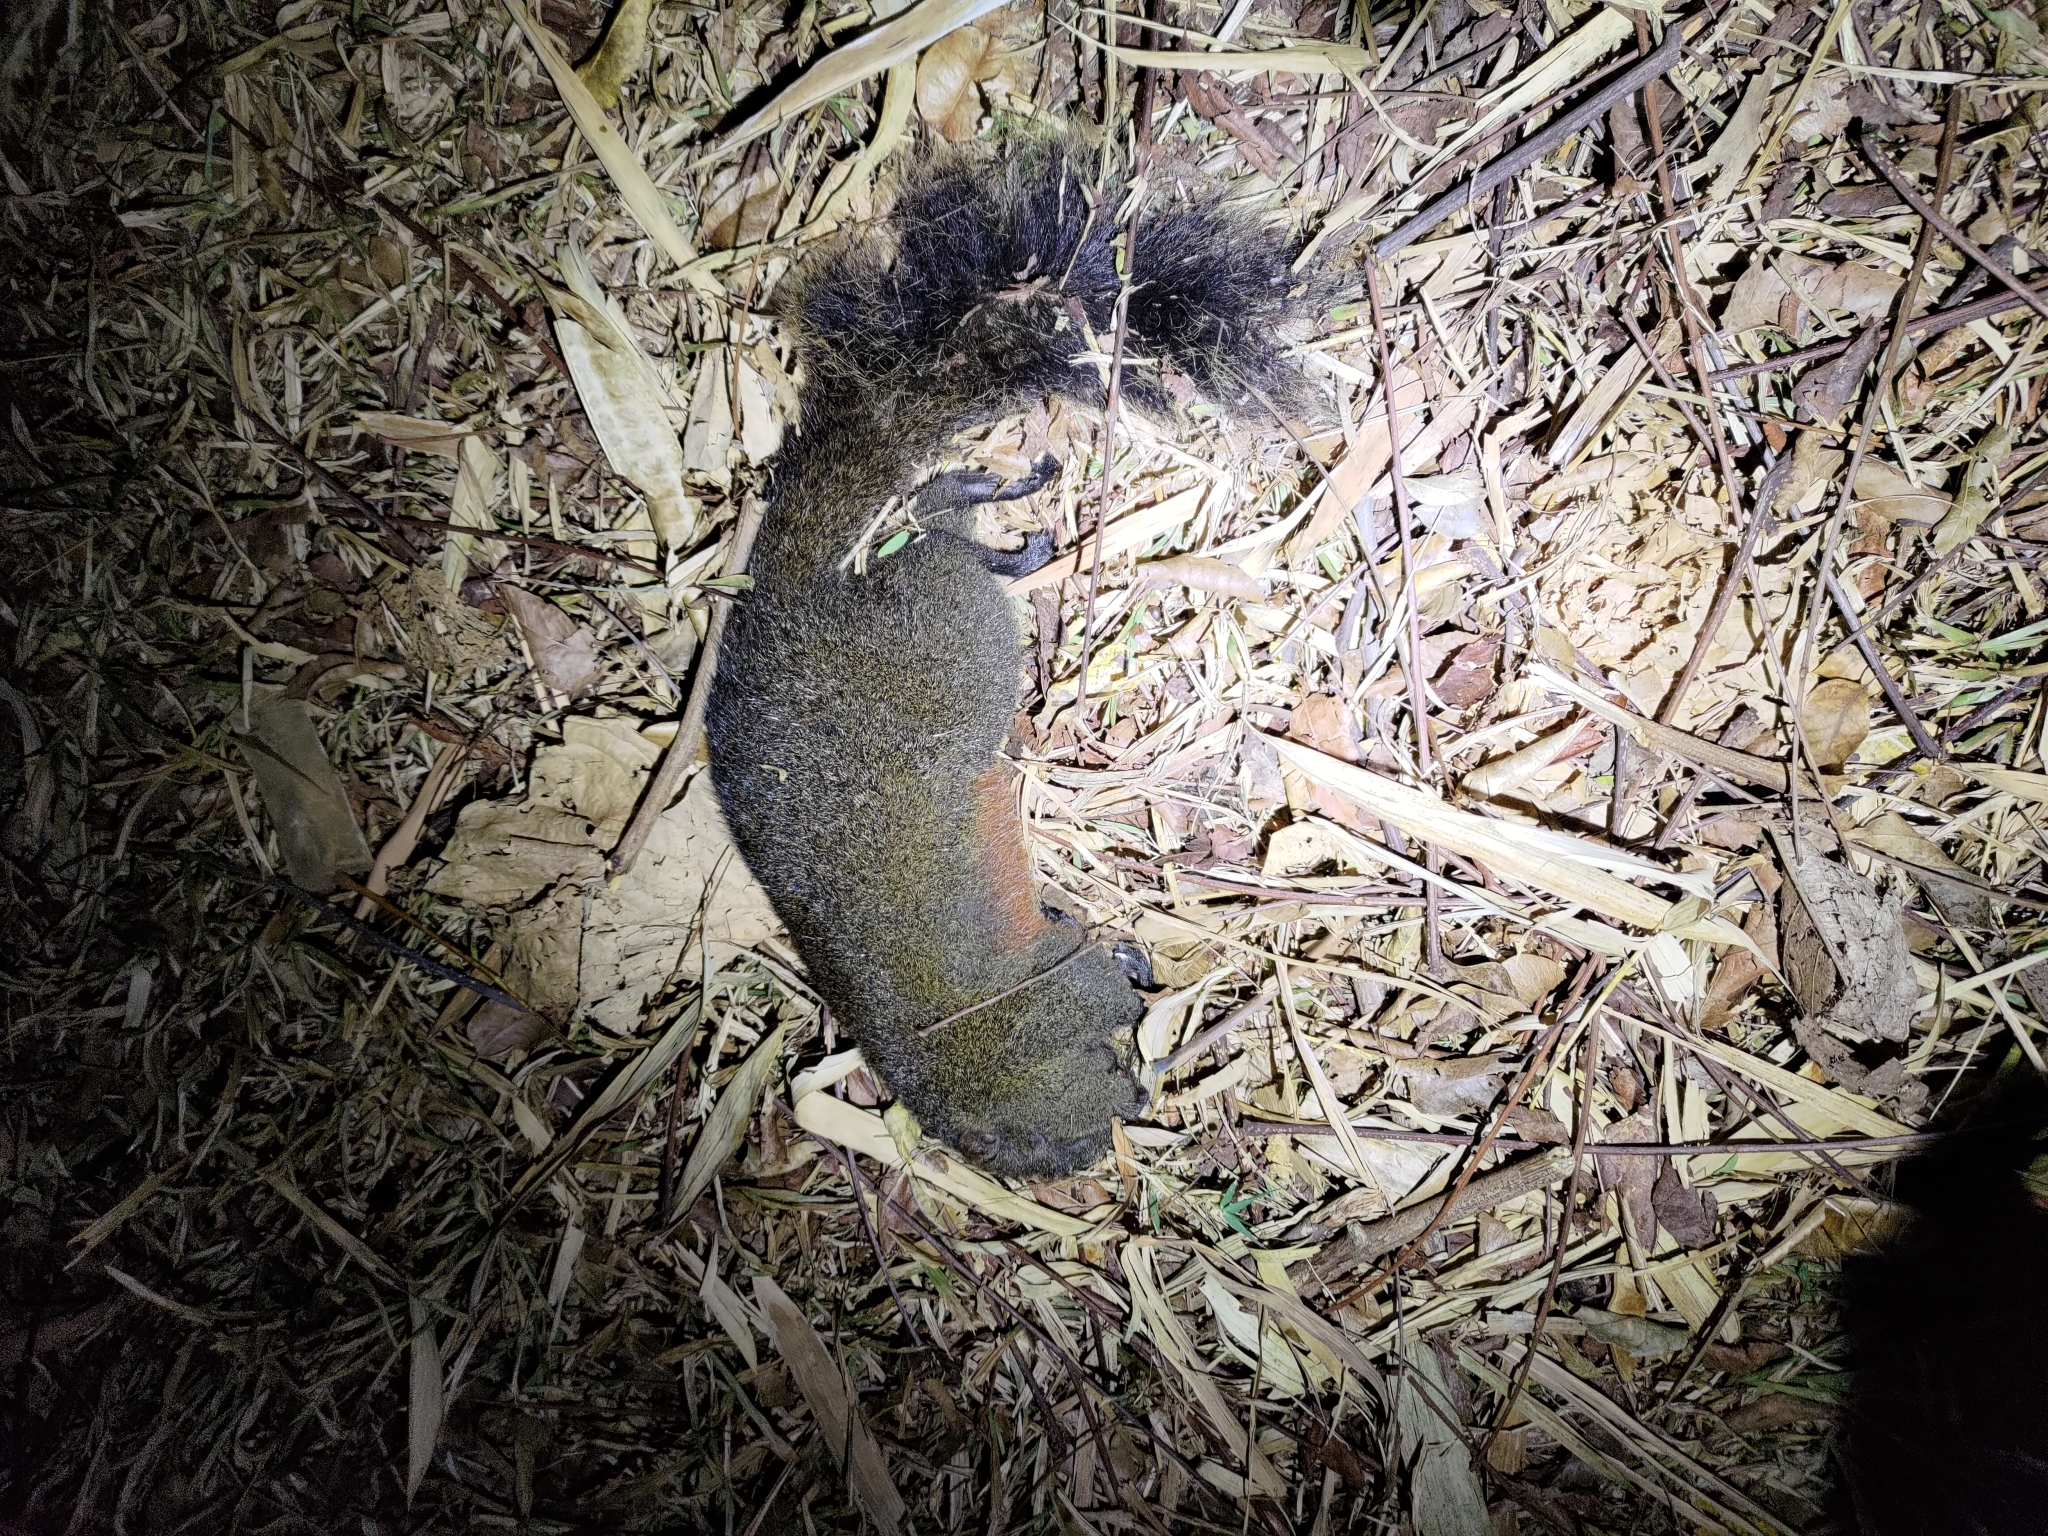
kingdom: Animalia
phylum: Chordata
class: Mammalia
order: Rodentia
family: Sciuridae
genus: Callosciurus
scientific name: Callosciurus erythraeus
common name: Pallas's squirrel
